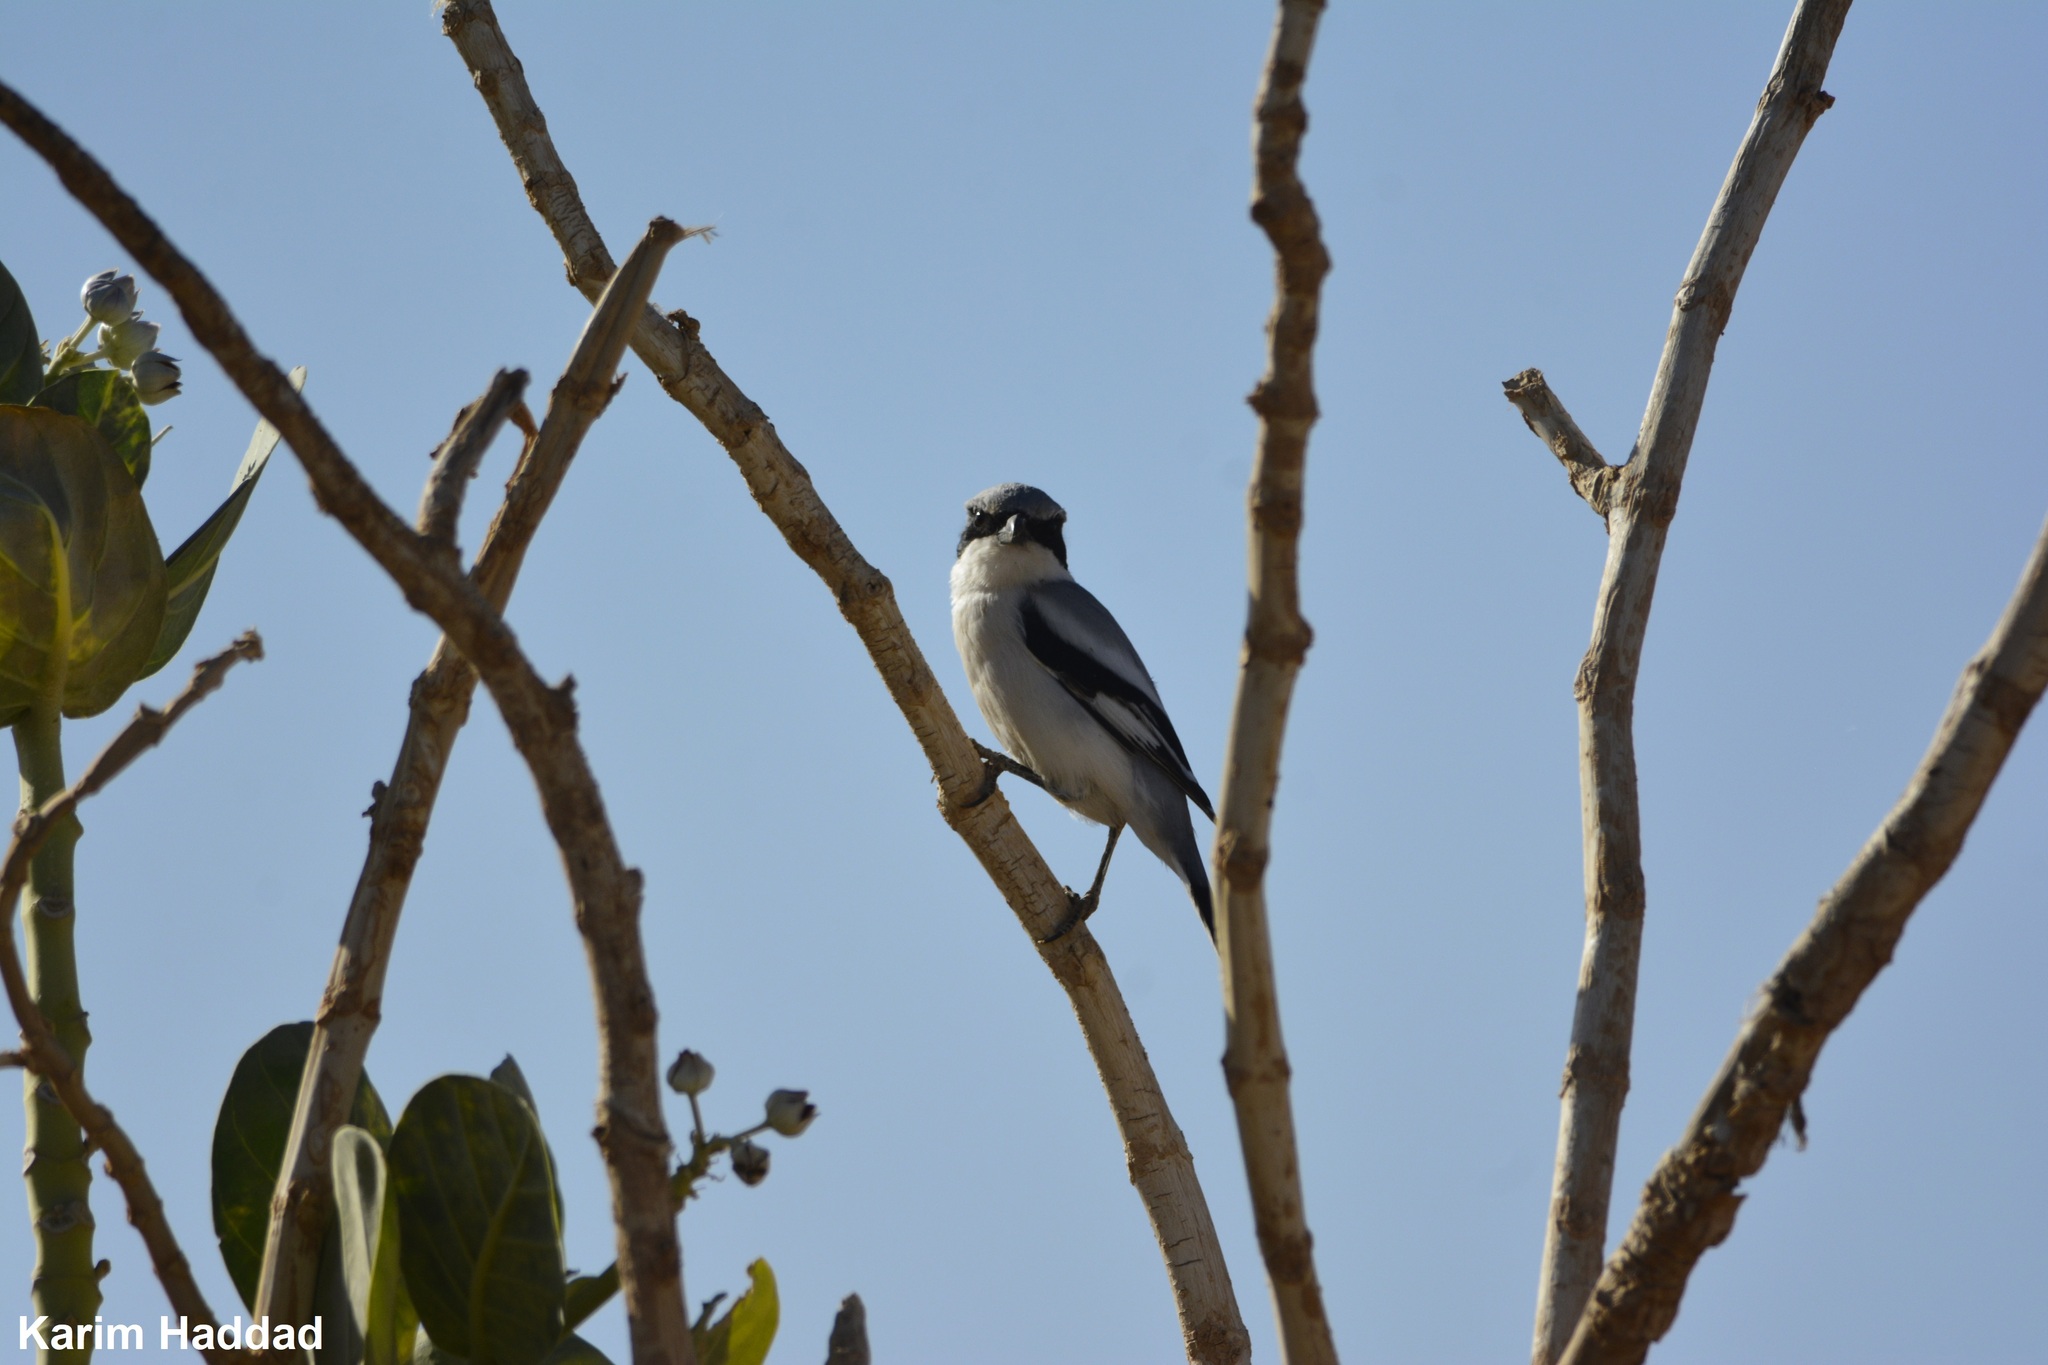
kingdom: Animalia
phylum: Chordata
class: Aves
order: Passeriformes
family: Laniidae
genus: Lanius
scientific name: Lanius excubitor
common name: Great grey shrike
